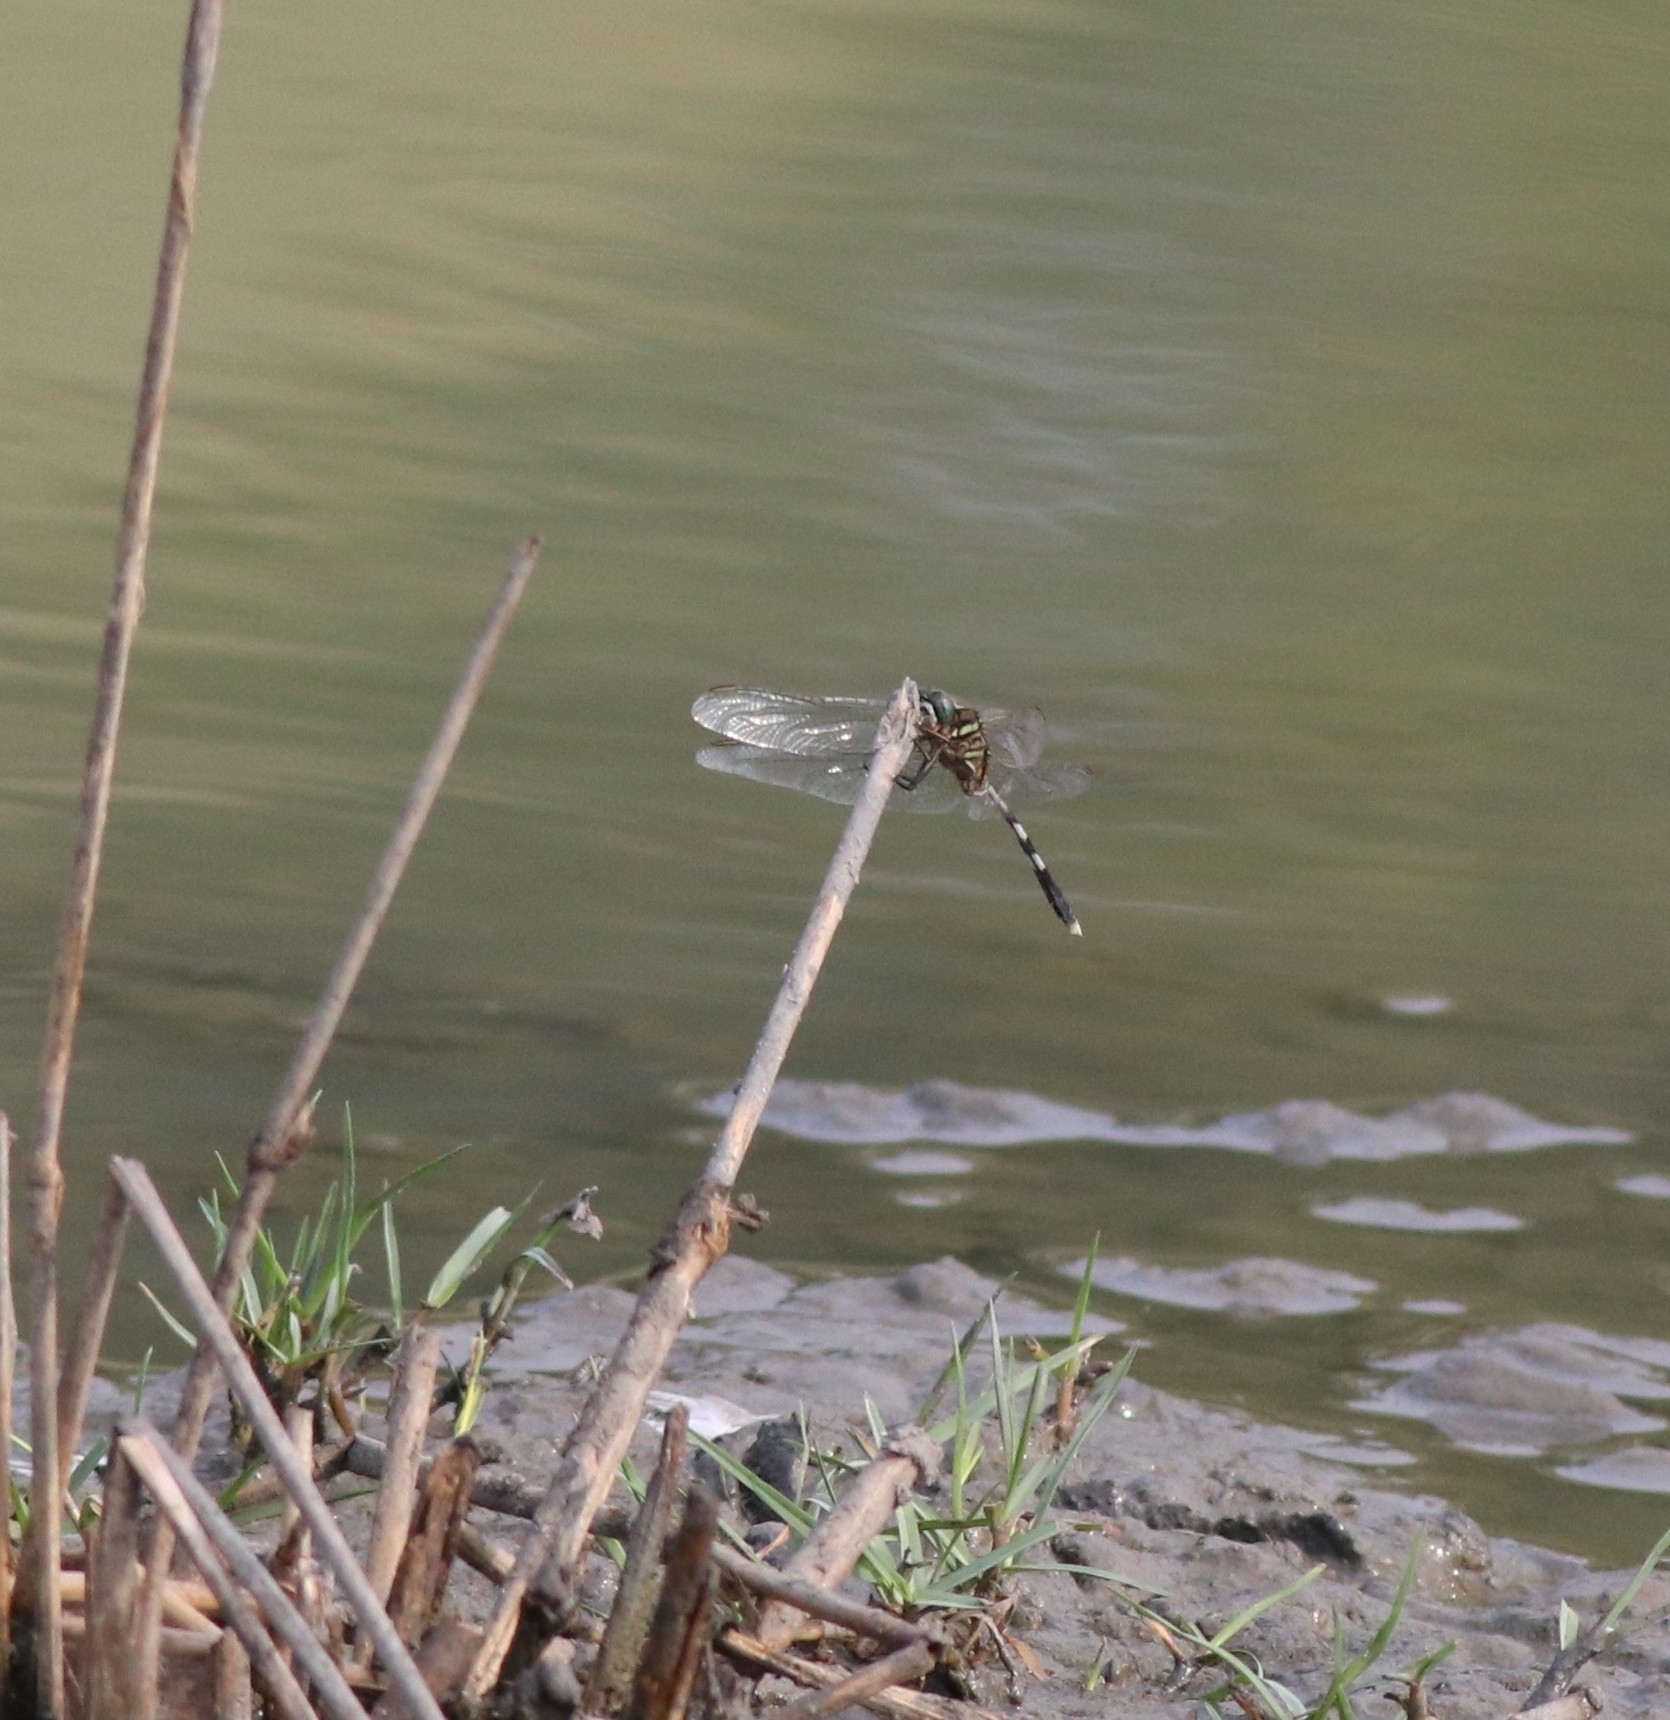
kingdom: Animalia
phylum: Arthropoda
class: Insecta
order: Odonata
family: Libellulidae
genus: Orthetrum
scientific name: Orthetrum sabina
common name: Slender skimmer
